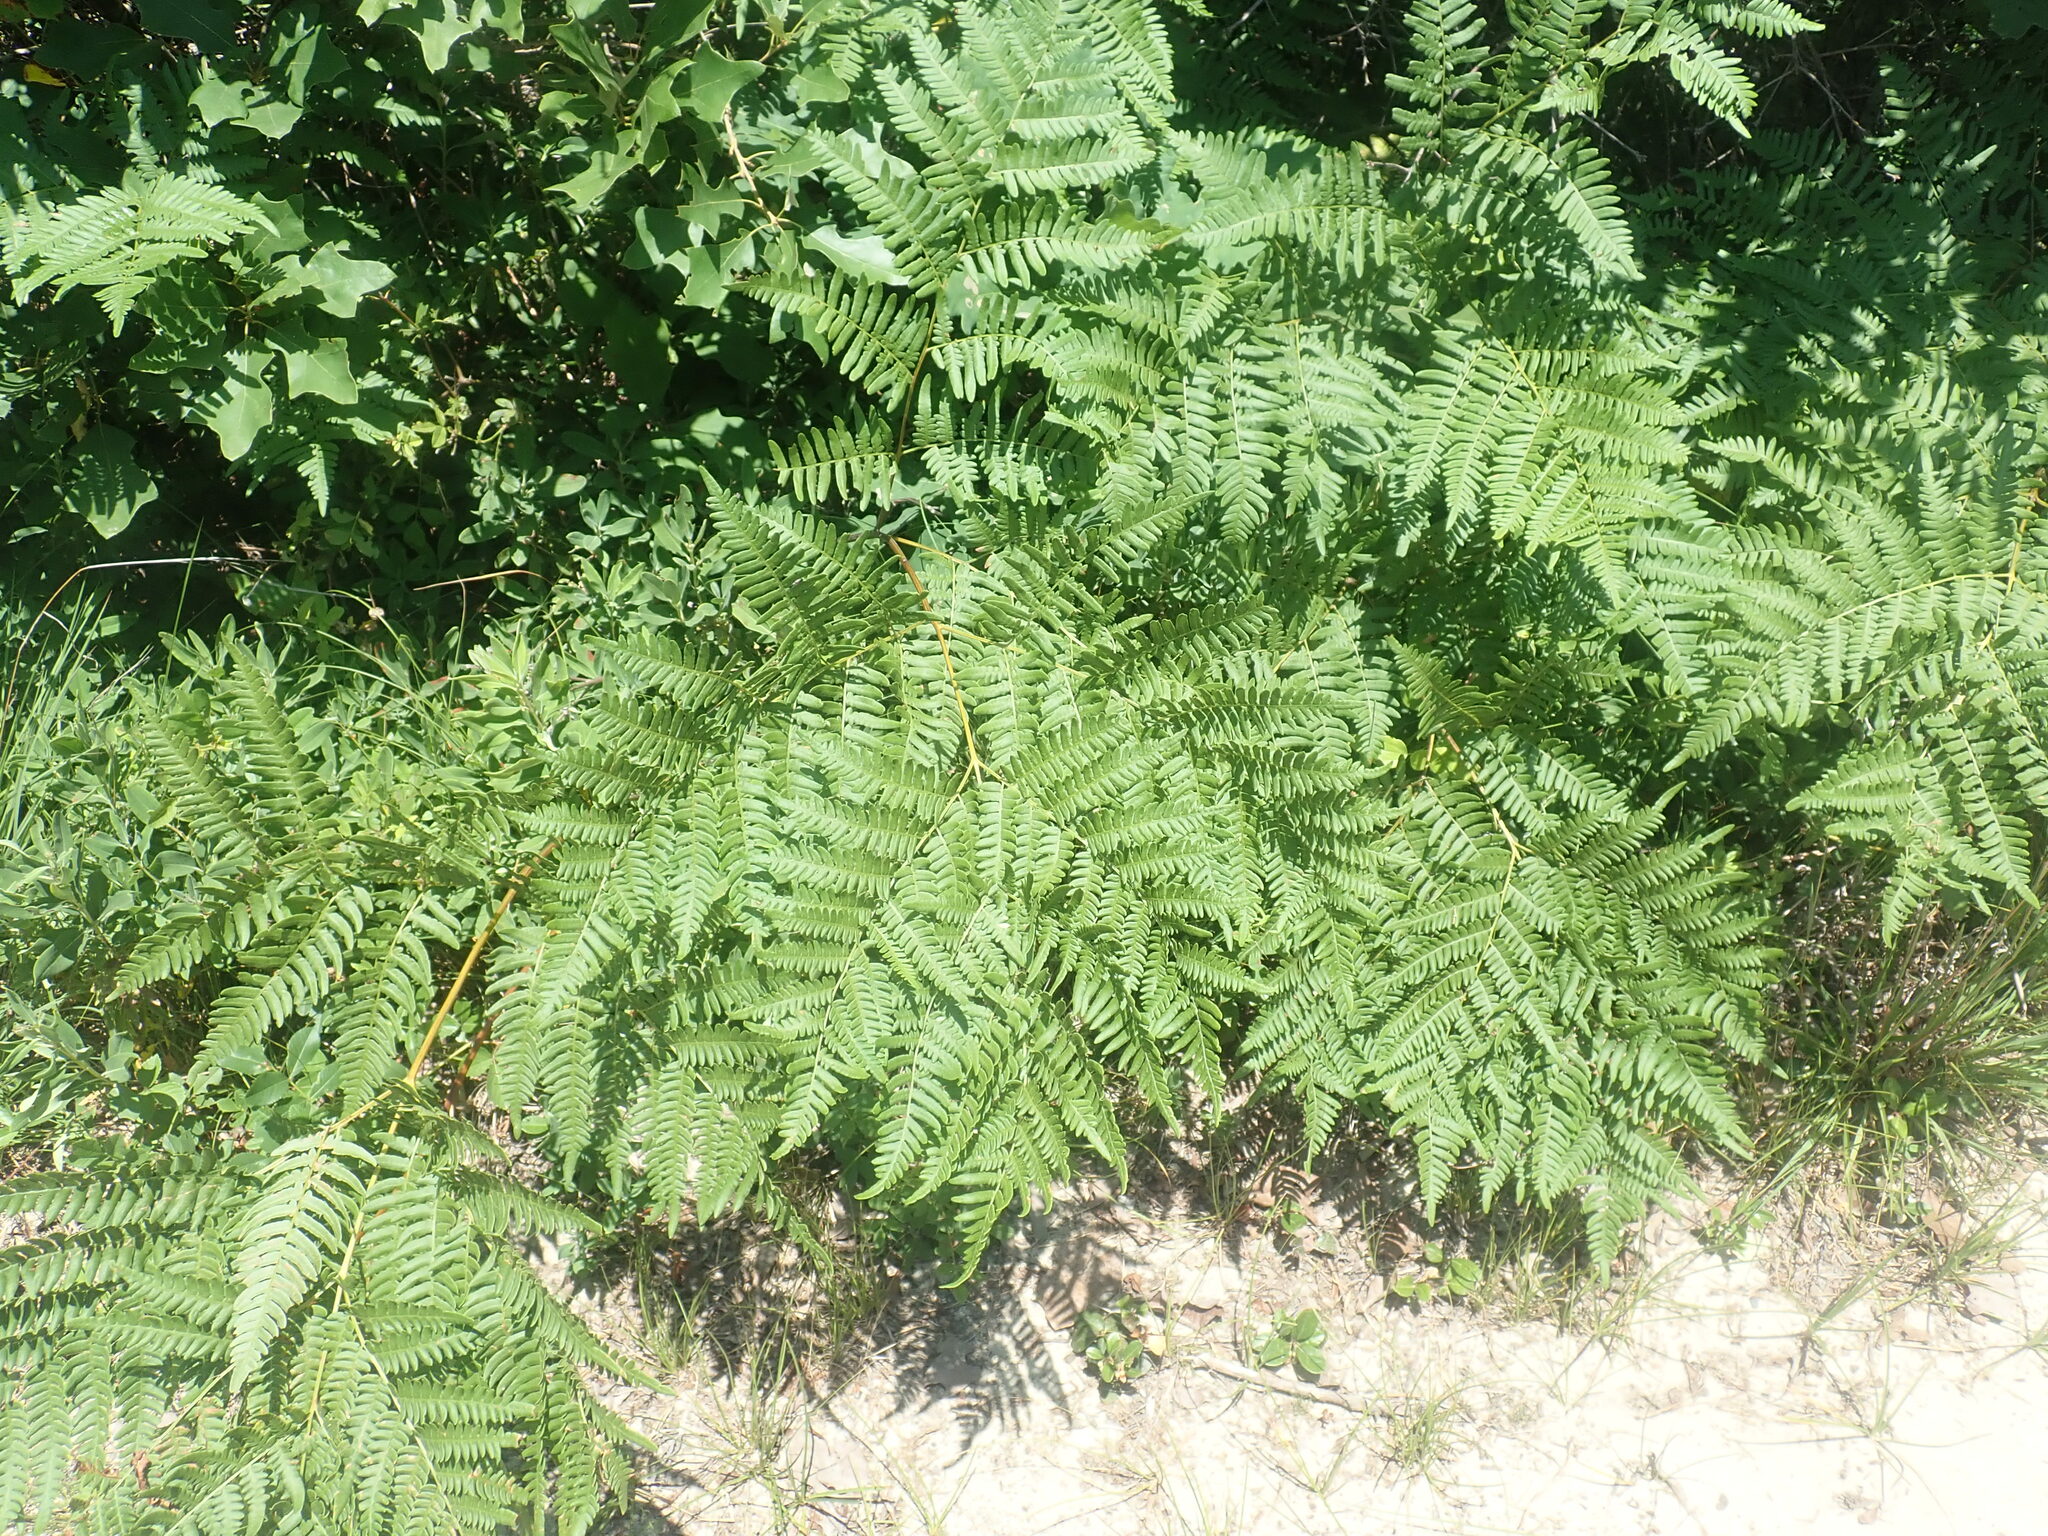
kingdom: Plantae
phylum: Tracheophyta
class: Polypodiopsida
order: Polypodiales
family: Dennstaedtiaceae
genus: Pteridium
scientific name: Pteridium aquilinum
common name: Bracken
